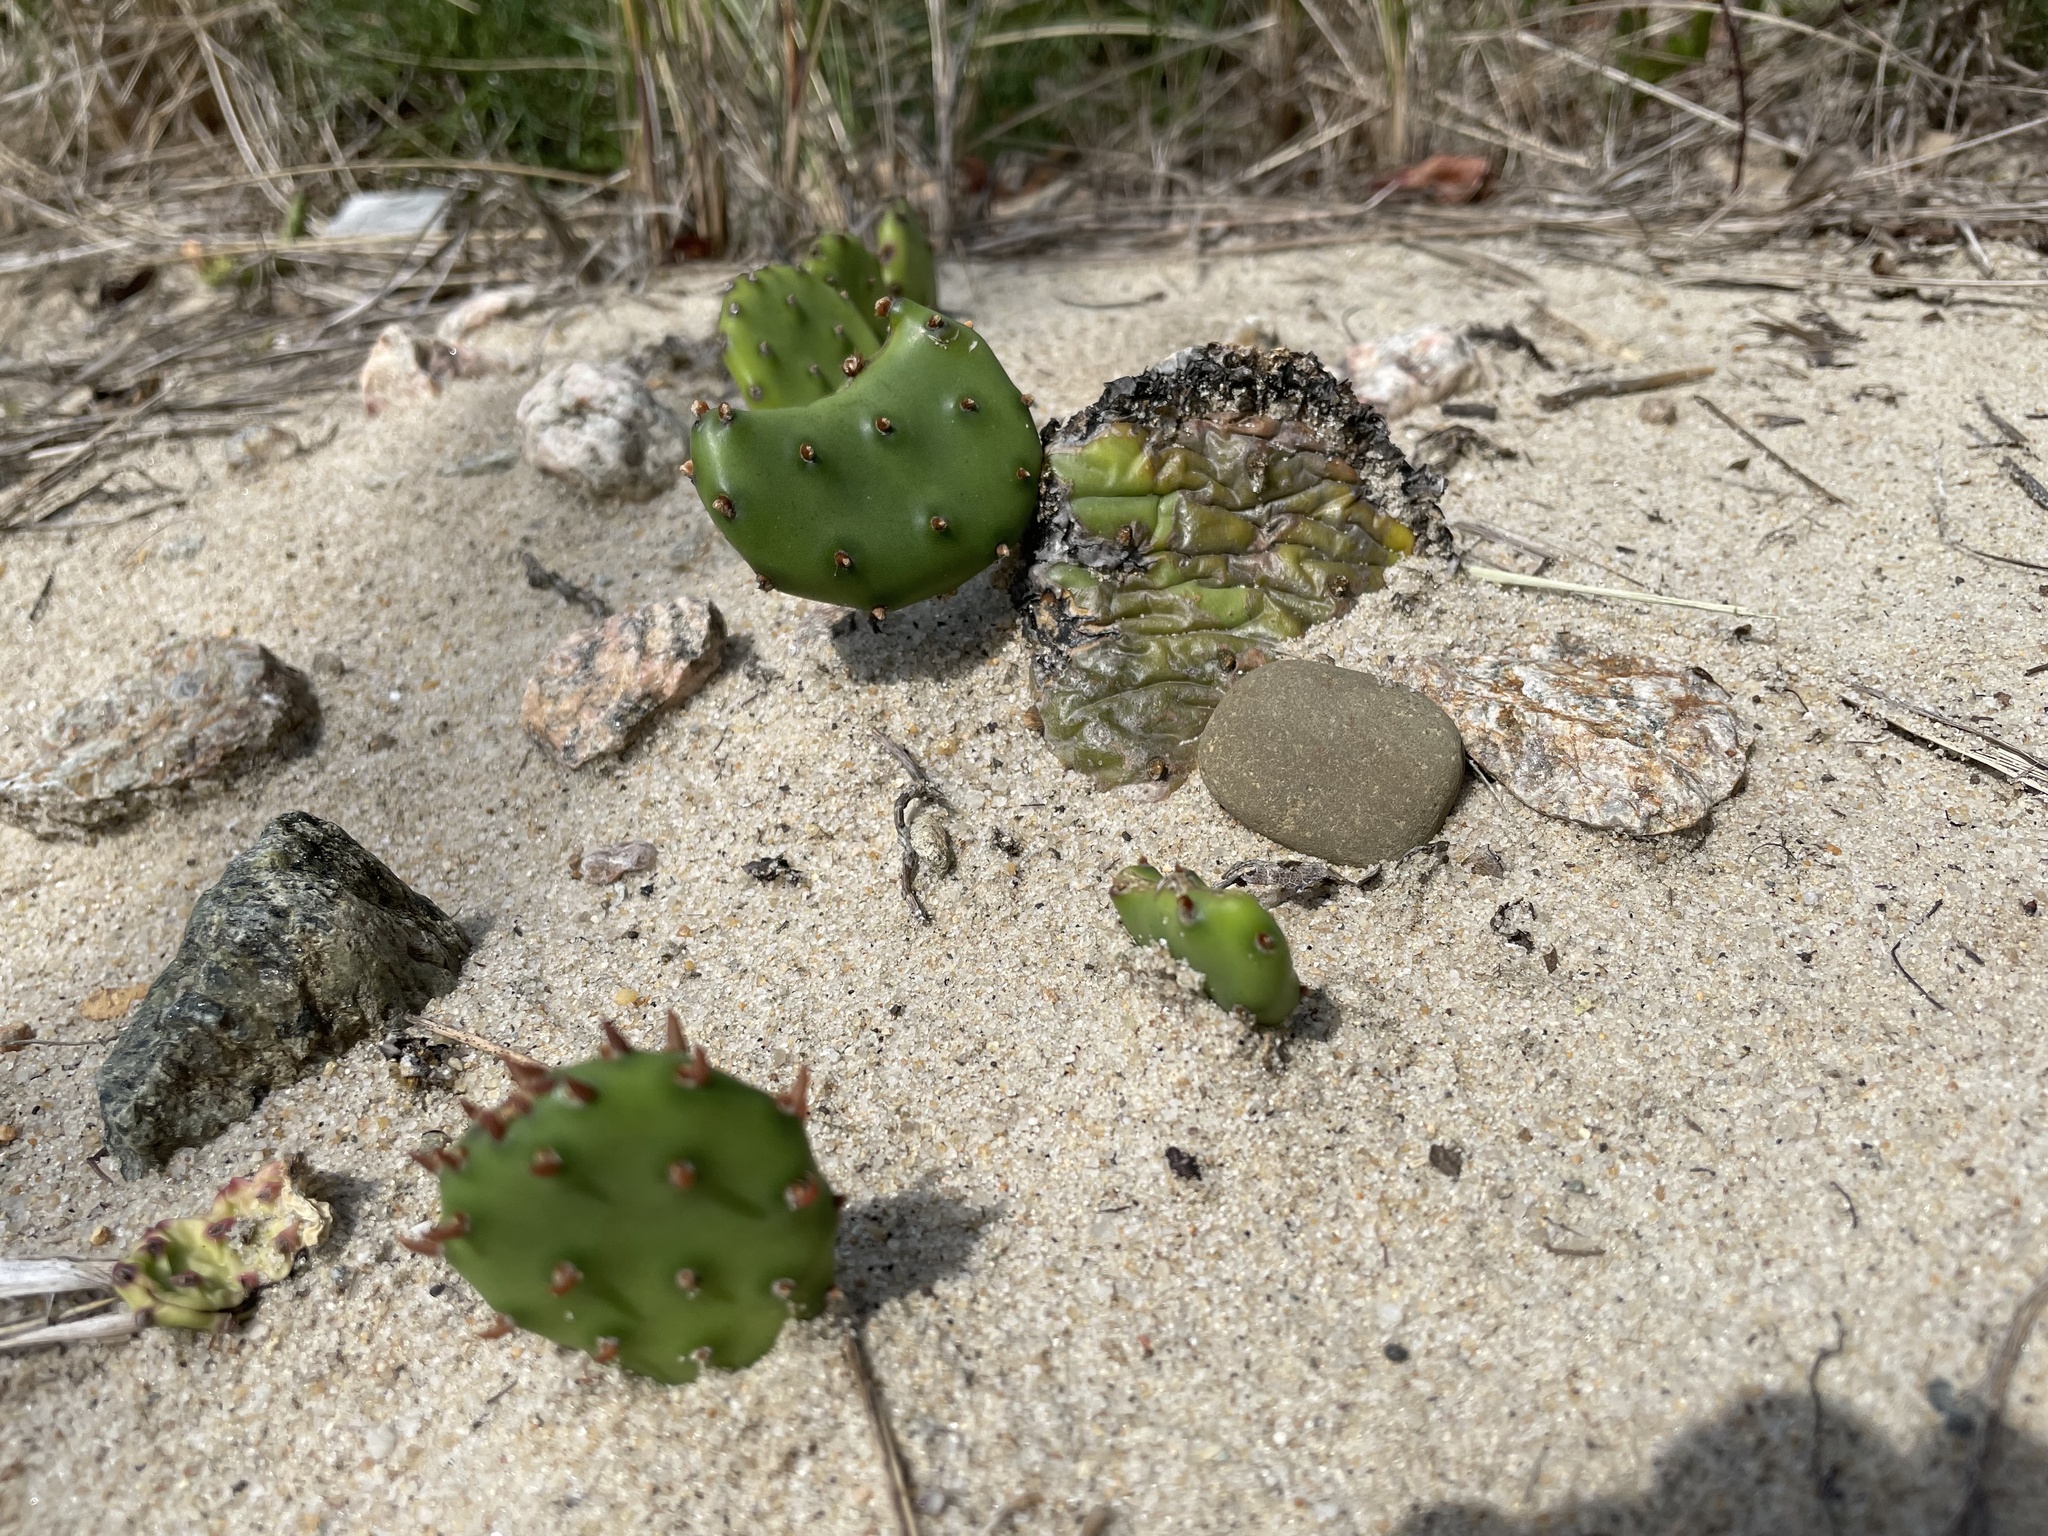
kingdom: Plantae
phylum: Tracheophyta
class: Magnoliopsida
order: Caryophyllales
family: Cactaceae
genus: Opuntia
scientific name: Opuntia humifusa
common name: Eastern prickly-pear
